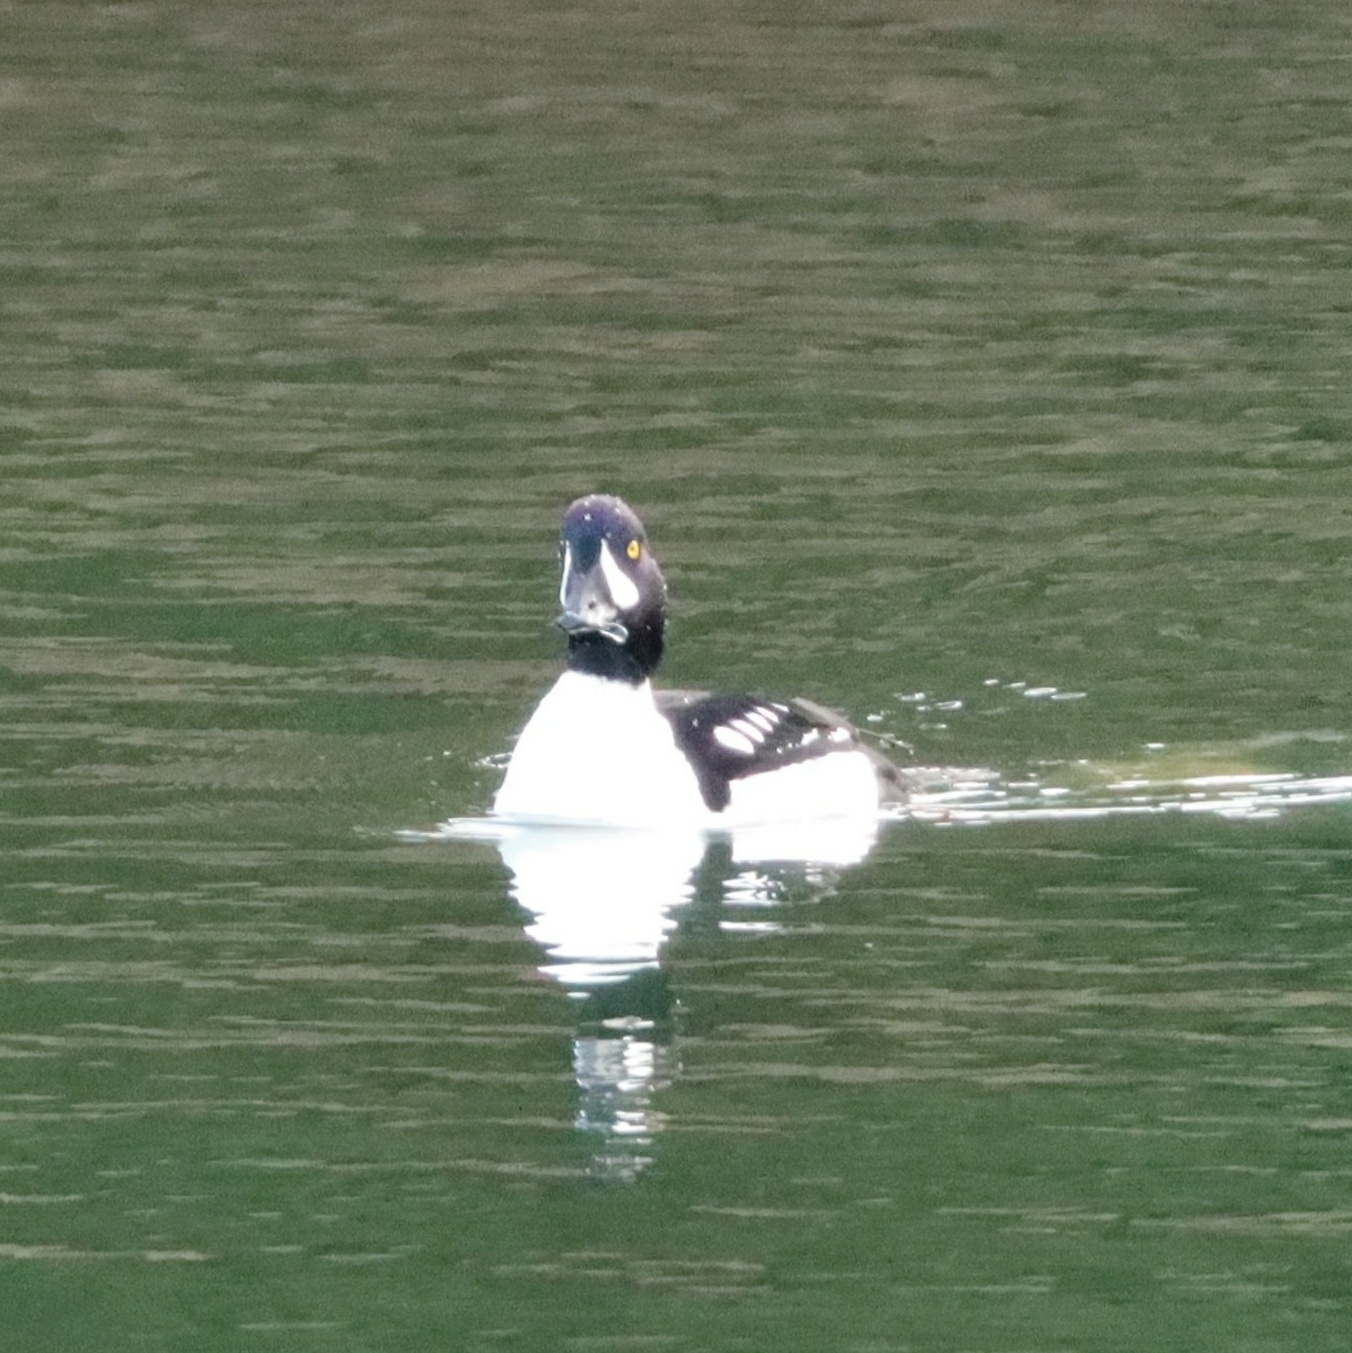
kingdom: Animalia
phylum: Chordata
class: Aves
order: Anseriformes
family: Anatidae
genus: Bucephala
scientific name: Bucephala islandica
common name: Barrow's goldeneye
